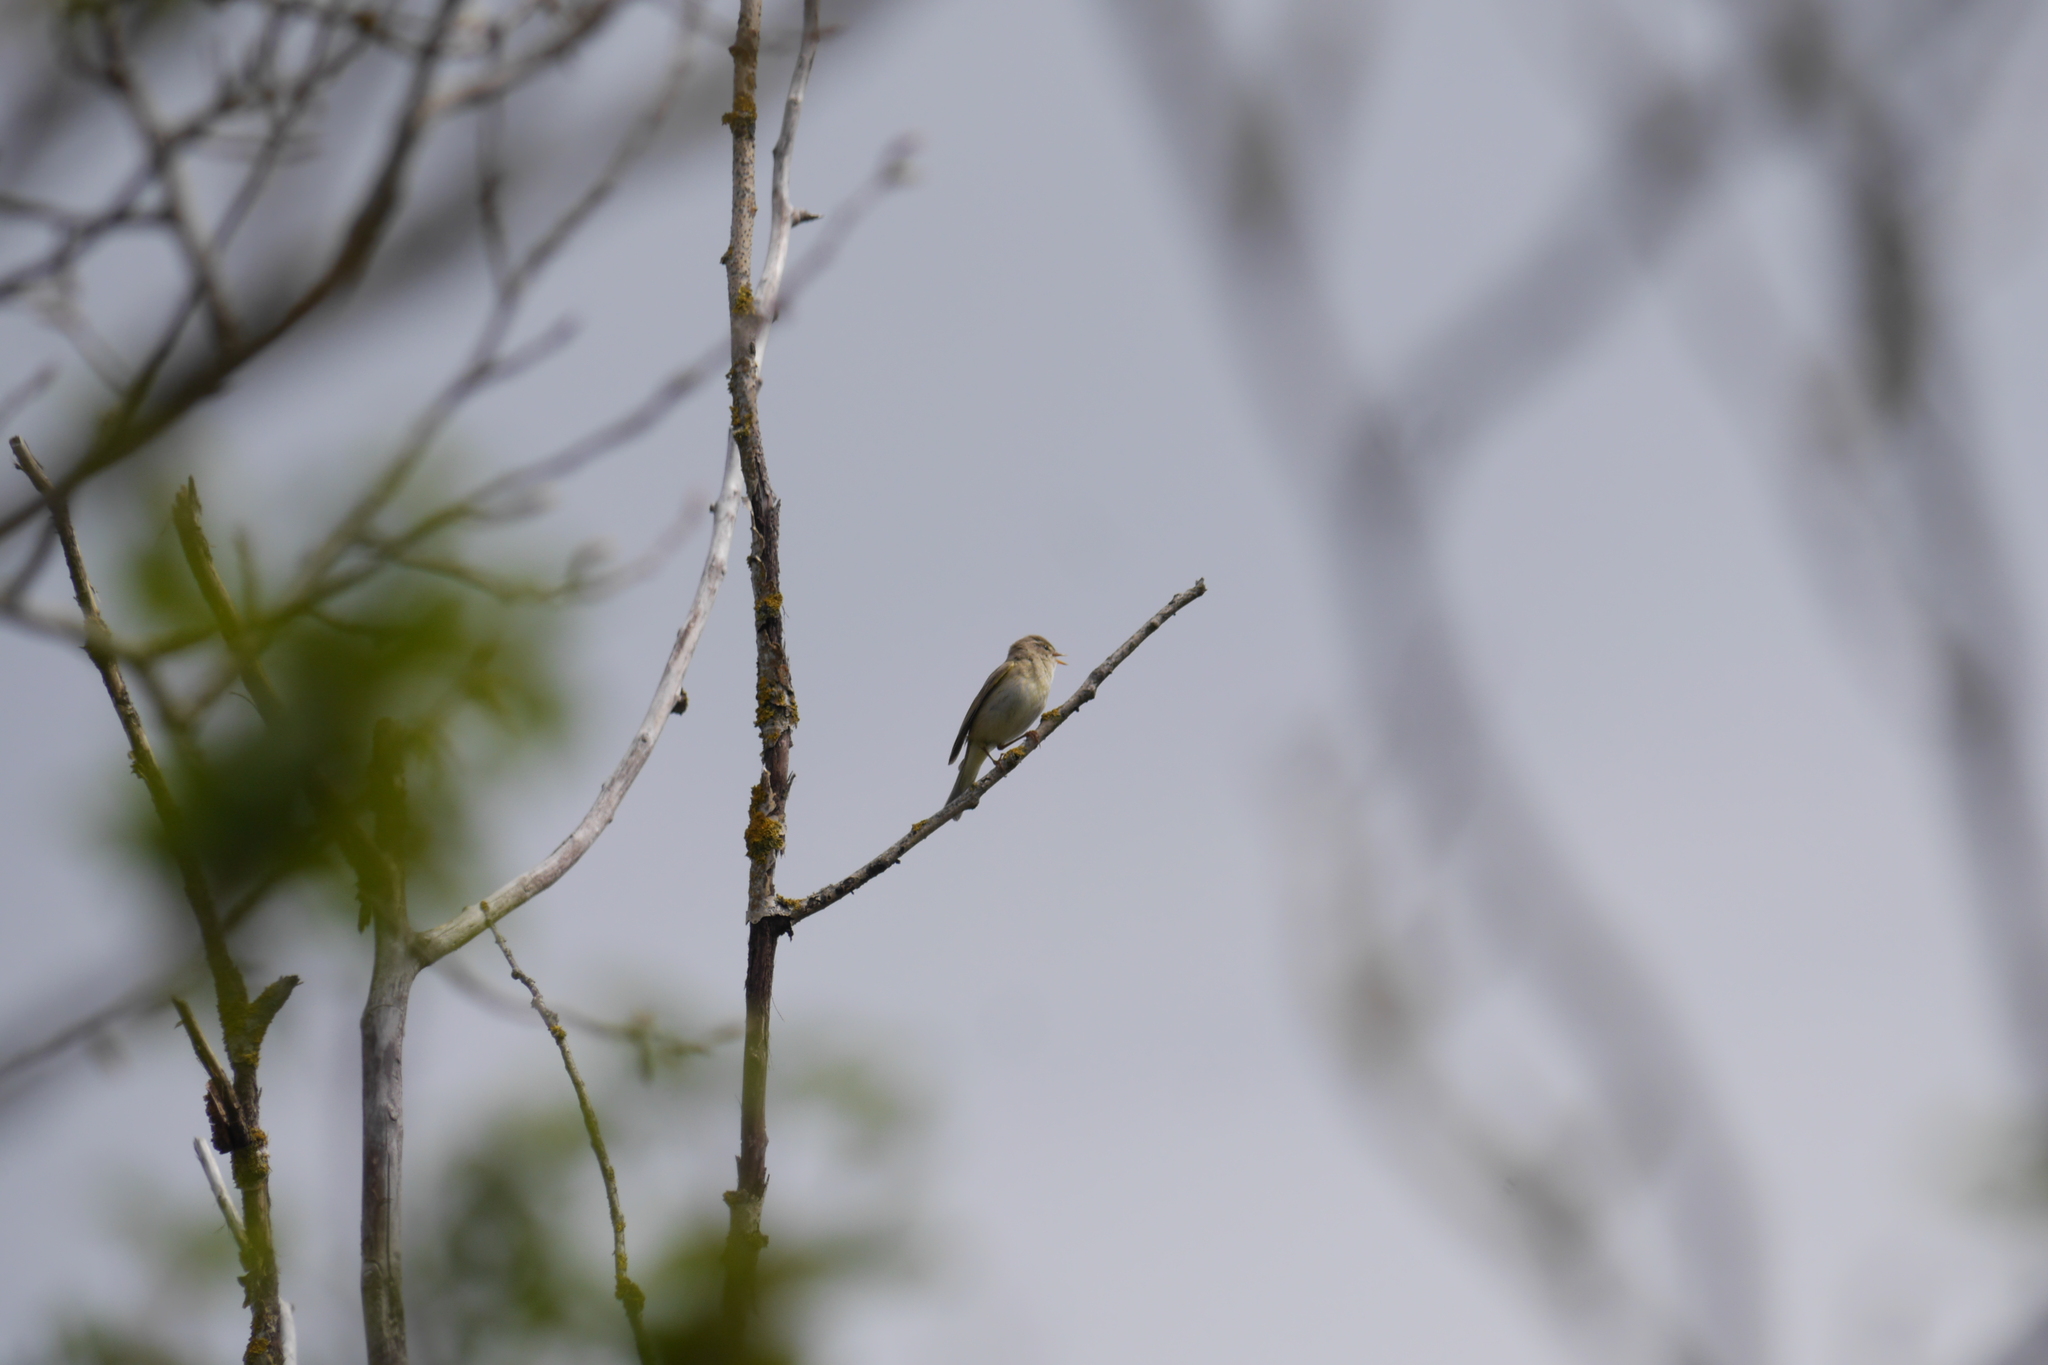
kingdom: Animalia
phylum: Chordata
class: Aves
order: Passeriformes
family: Phylloscopidae
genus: Phylloscopus
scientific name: Phylloscopus trochilus
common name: Willow warbler
